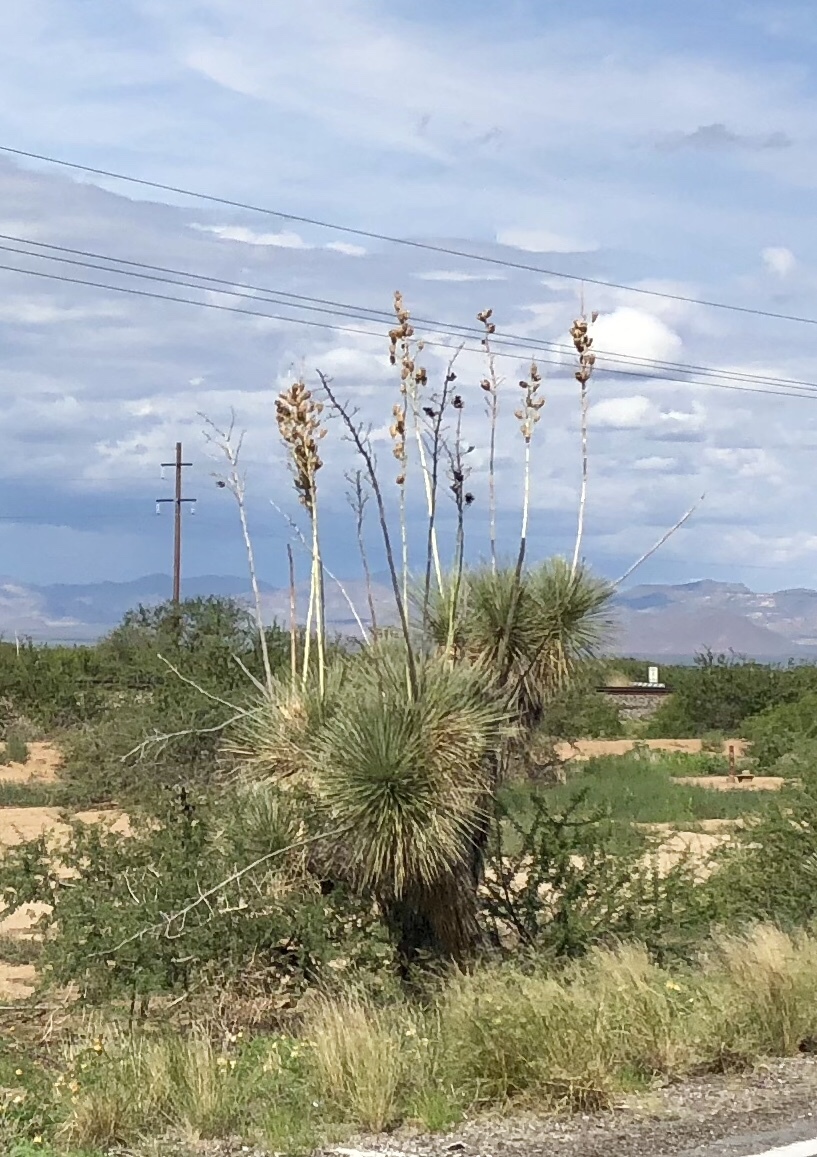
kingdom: Plantae
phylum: Tracheophyta
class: Liliopsida
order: Asparagales
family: Asparagaceae
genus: Yucca
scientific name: Yucca elata
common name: Palmella
